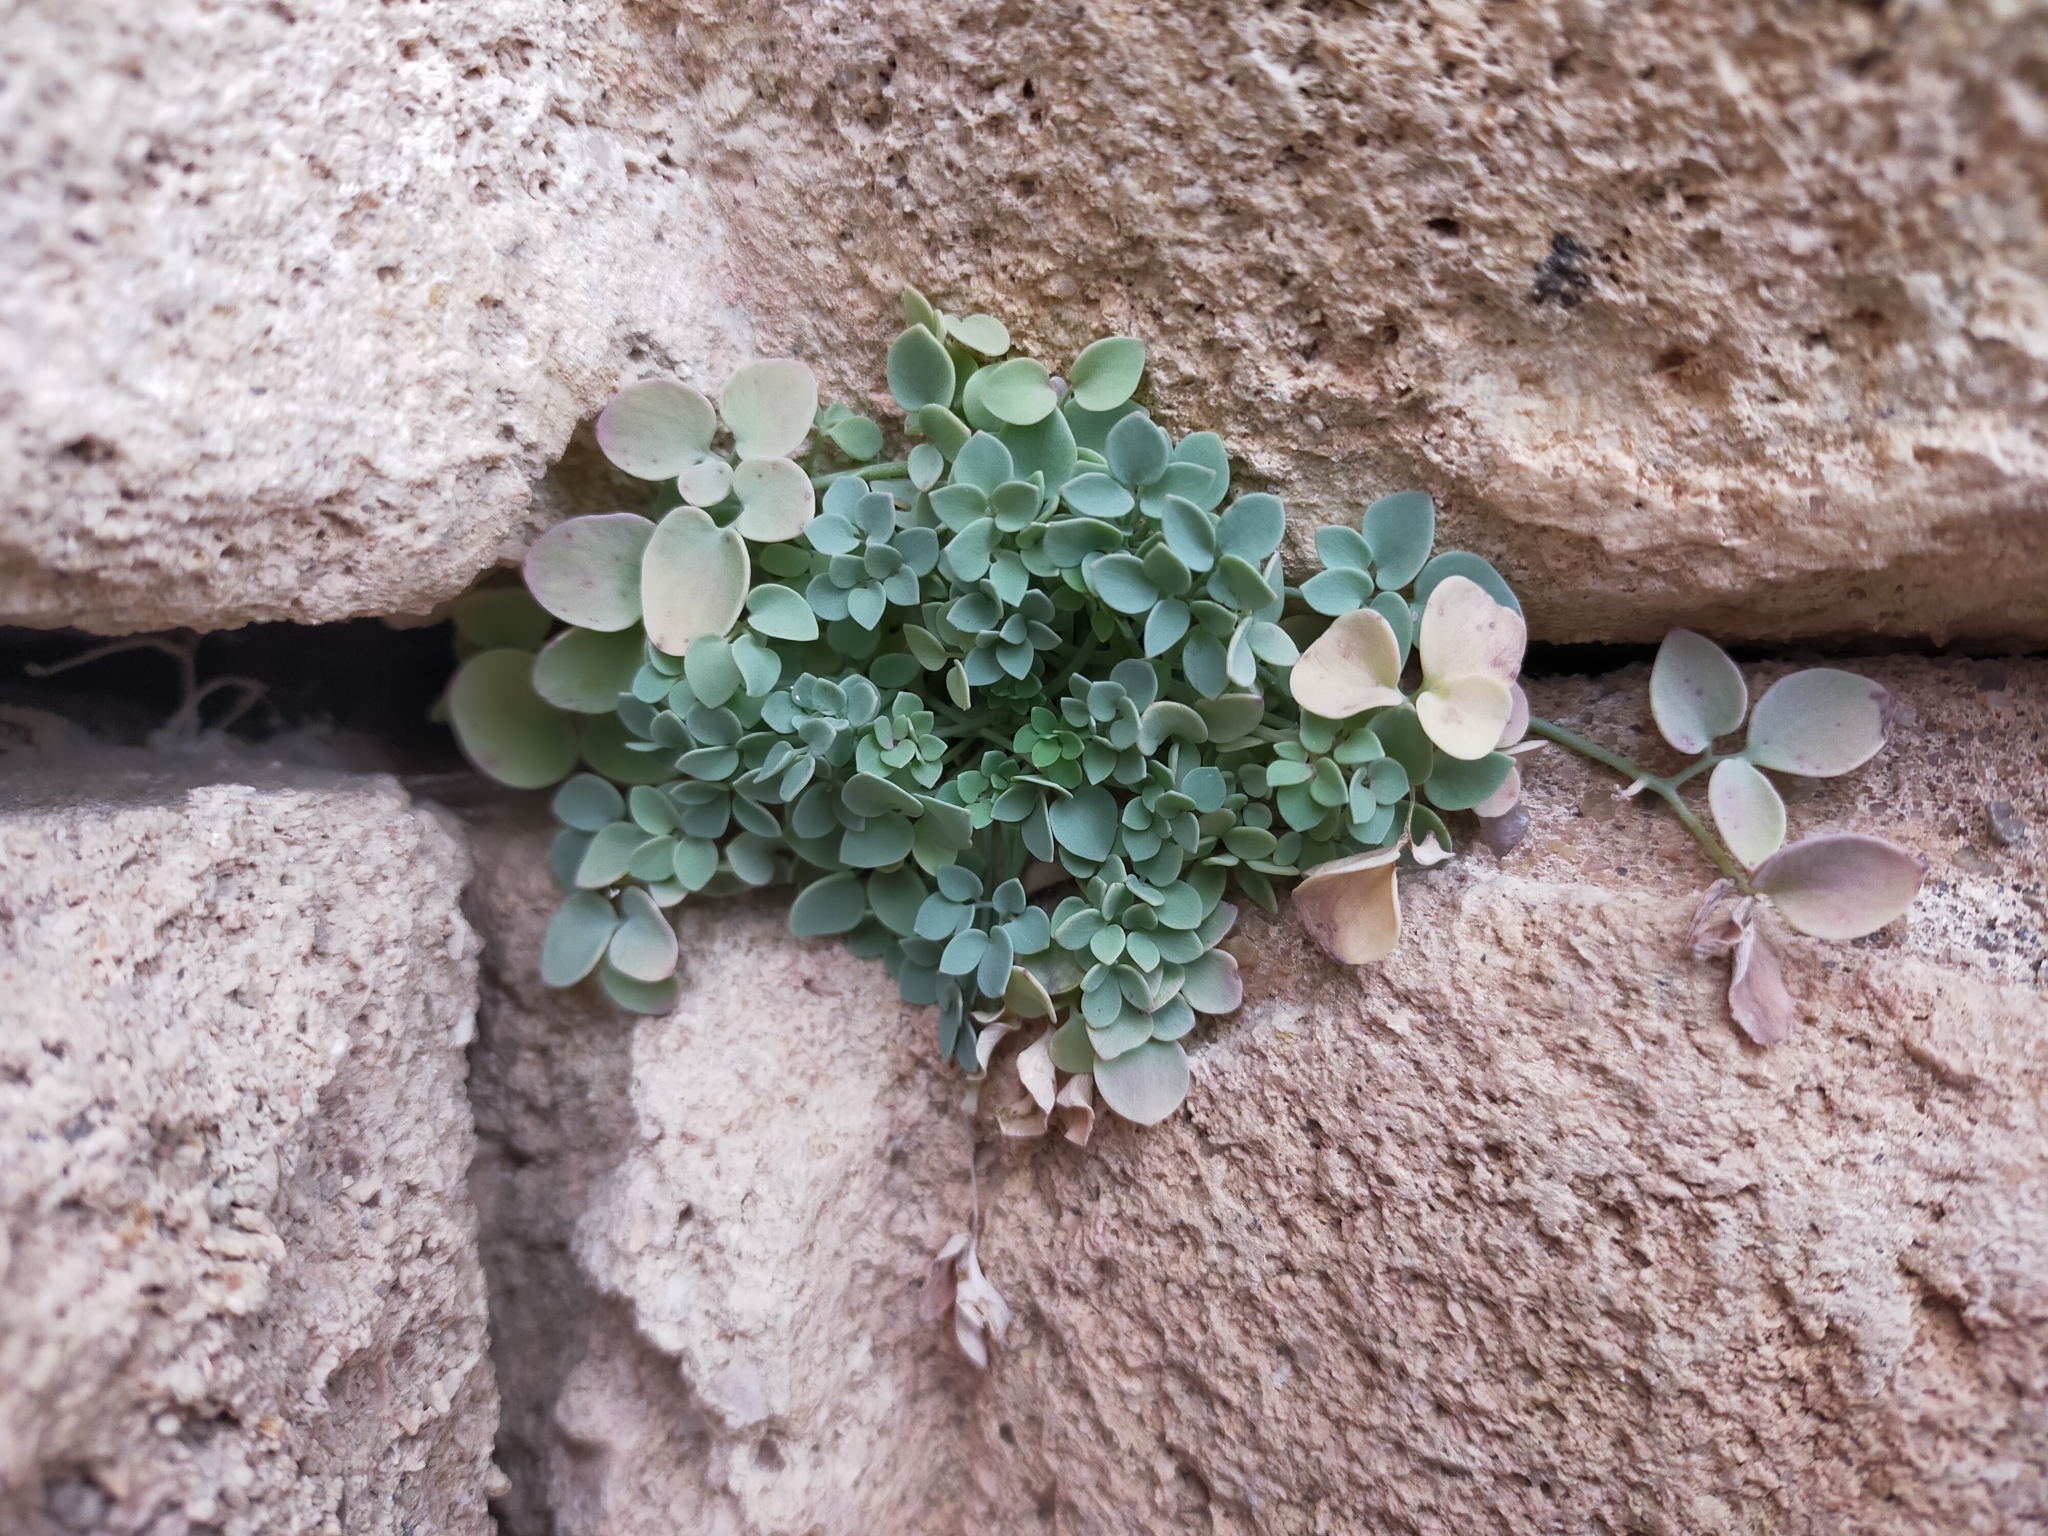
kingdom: Plantae
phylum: Tracheophyta
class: Magnoliopsida
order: Ranunculales
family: Papaveraceae
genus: Sarcocapnos
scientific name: Sarcocapnos enneaphylla
